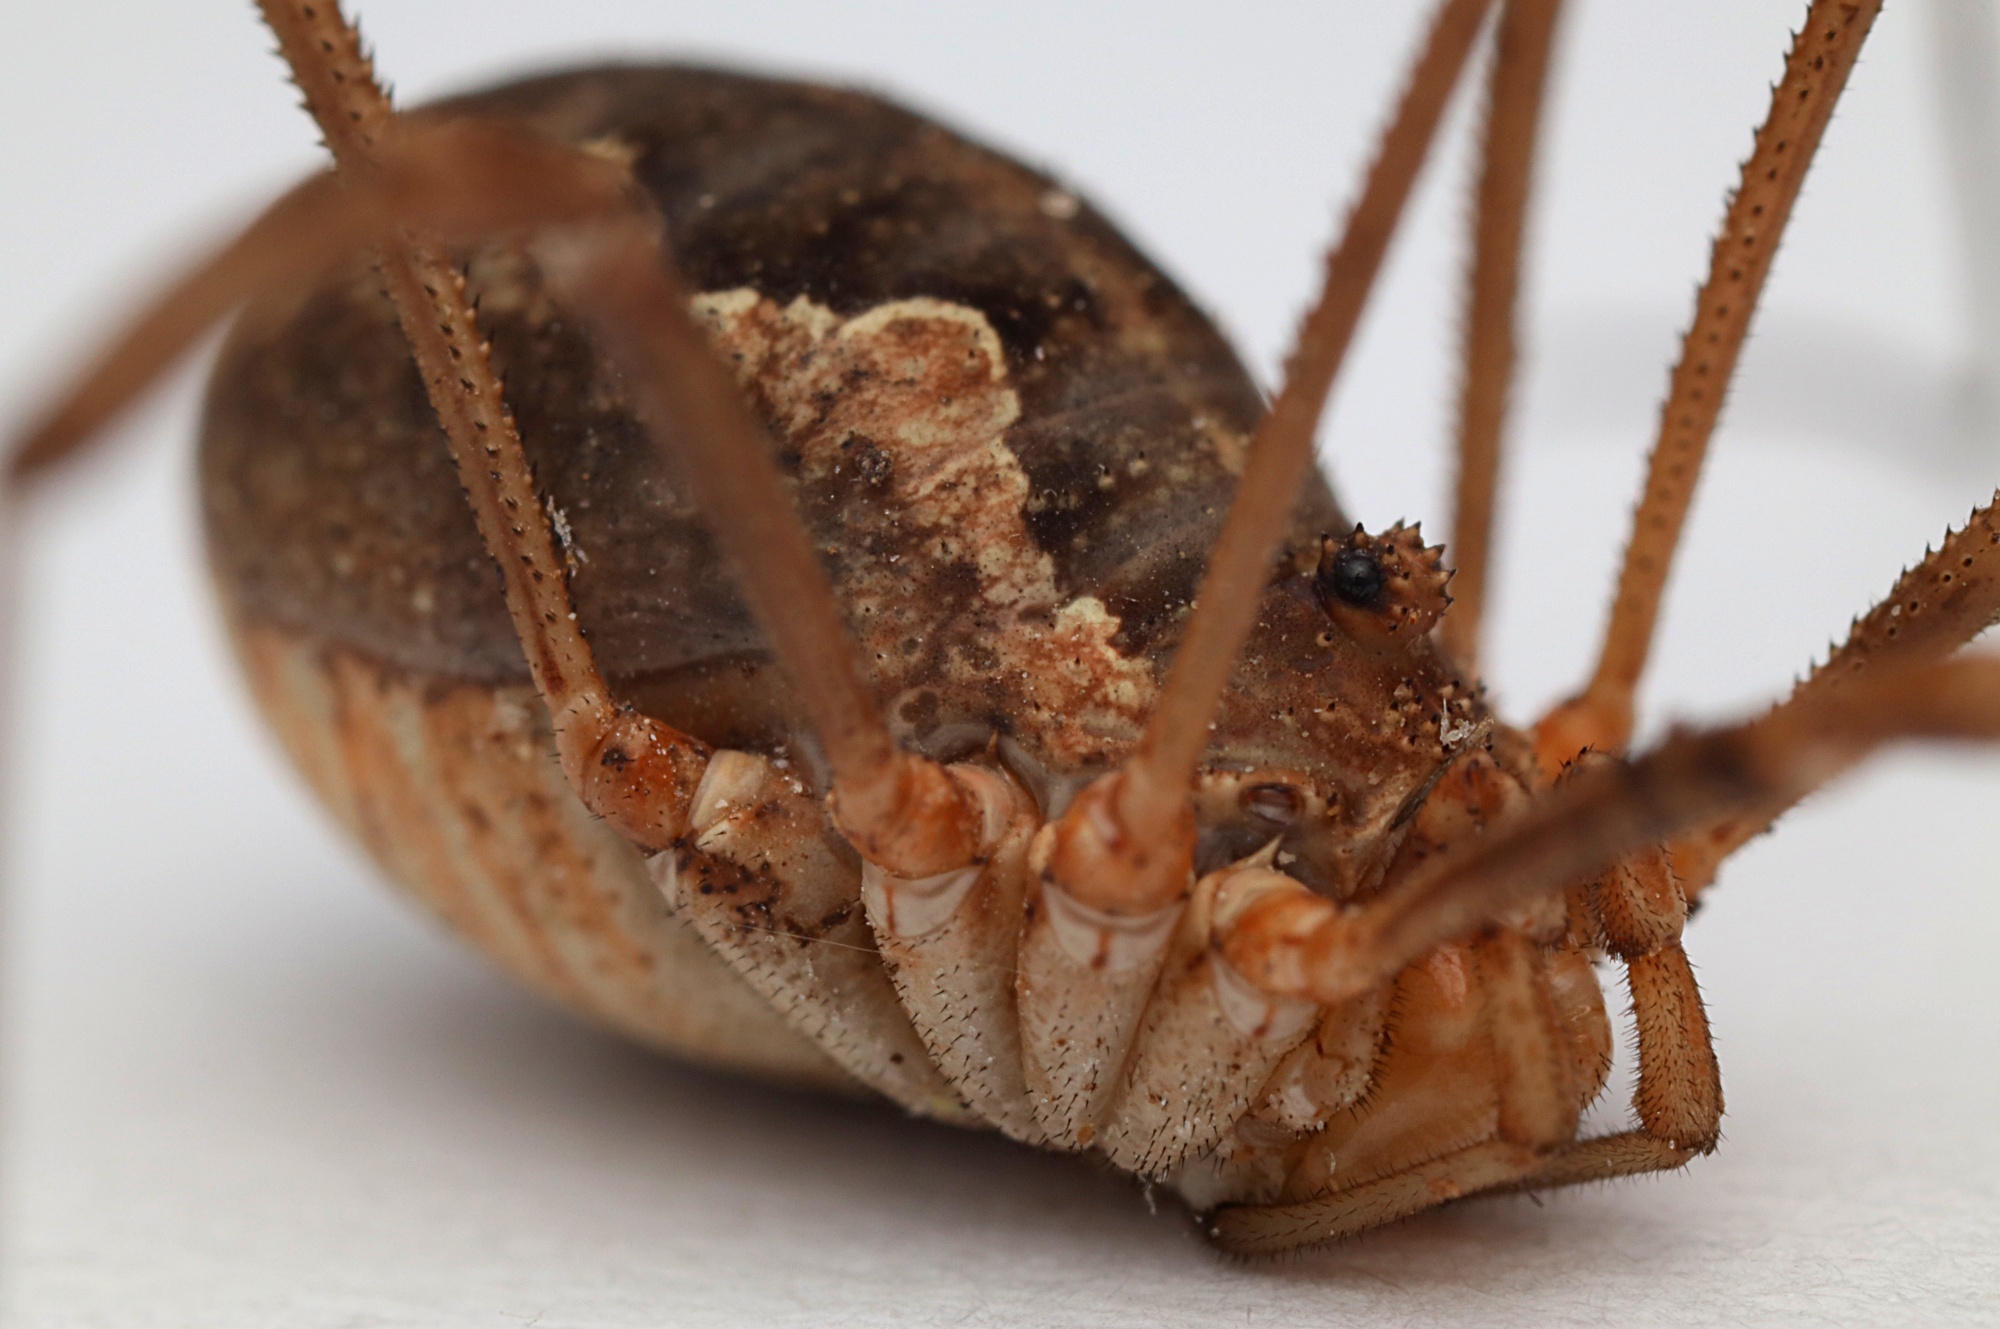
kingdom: Animalia
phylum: Arthropoda
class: Arachnida
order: Opiliones
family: Phalangiidae
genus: Phalangium
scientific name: Phalangium opilio
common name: Daddy longleg
